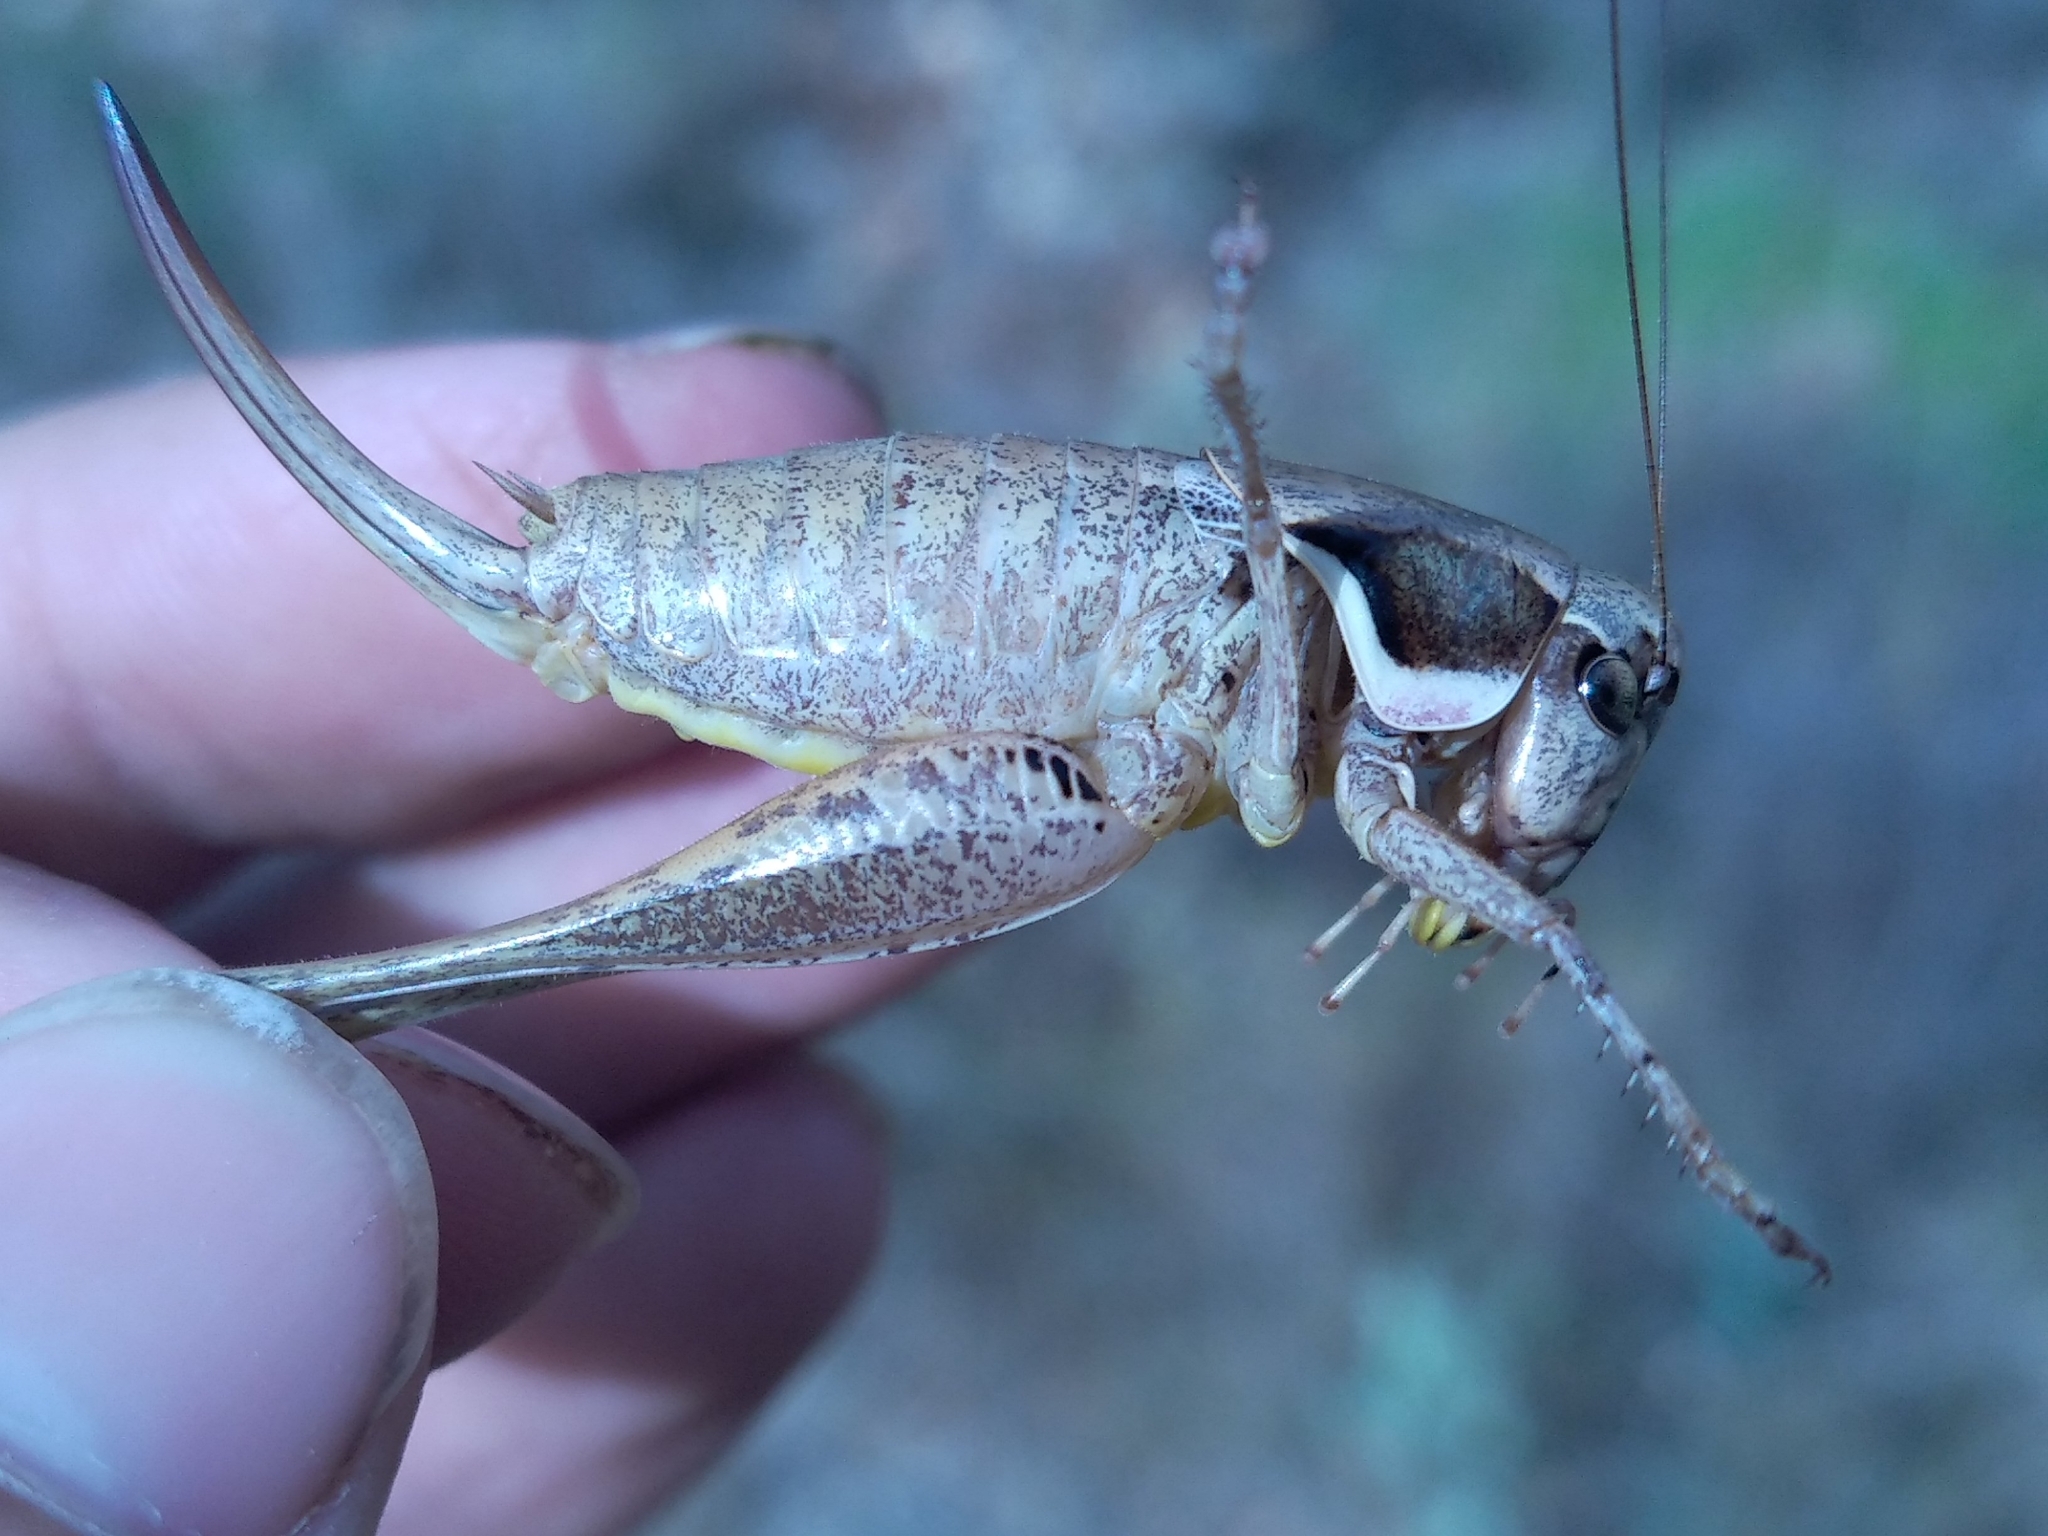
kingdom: Animalia
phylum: Arthropoda
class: Insecta
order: Orthoptera
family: Tettigoniidae
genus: Pholidoptera
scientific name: Pholidoptera femorata
